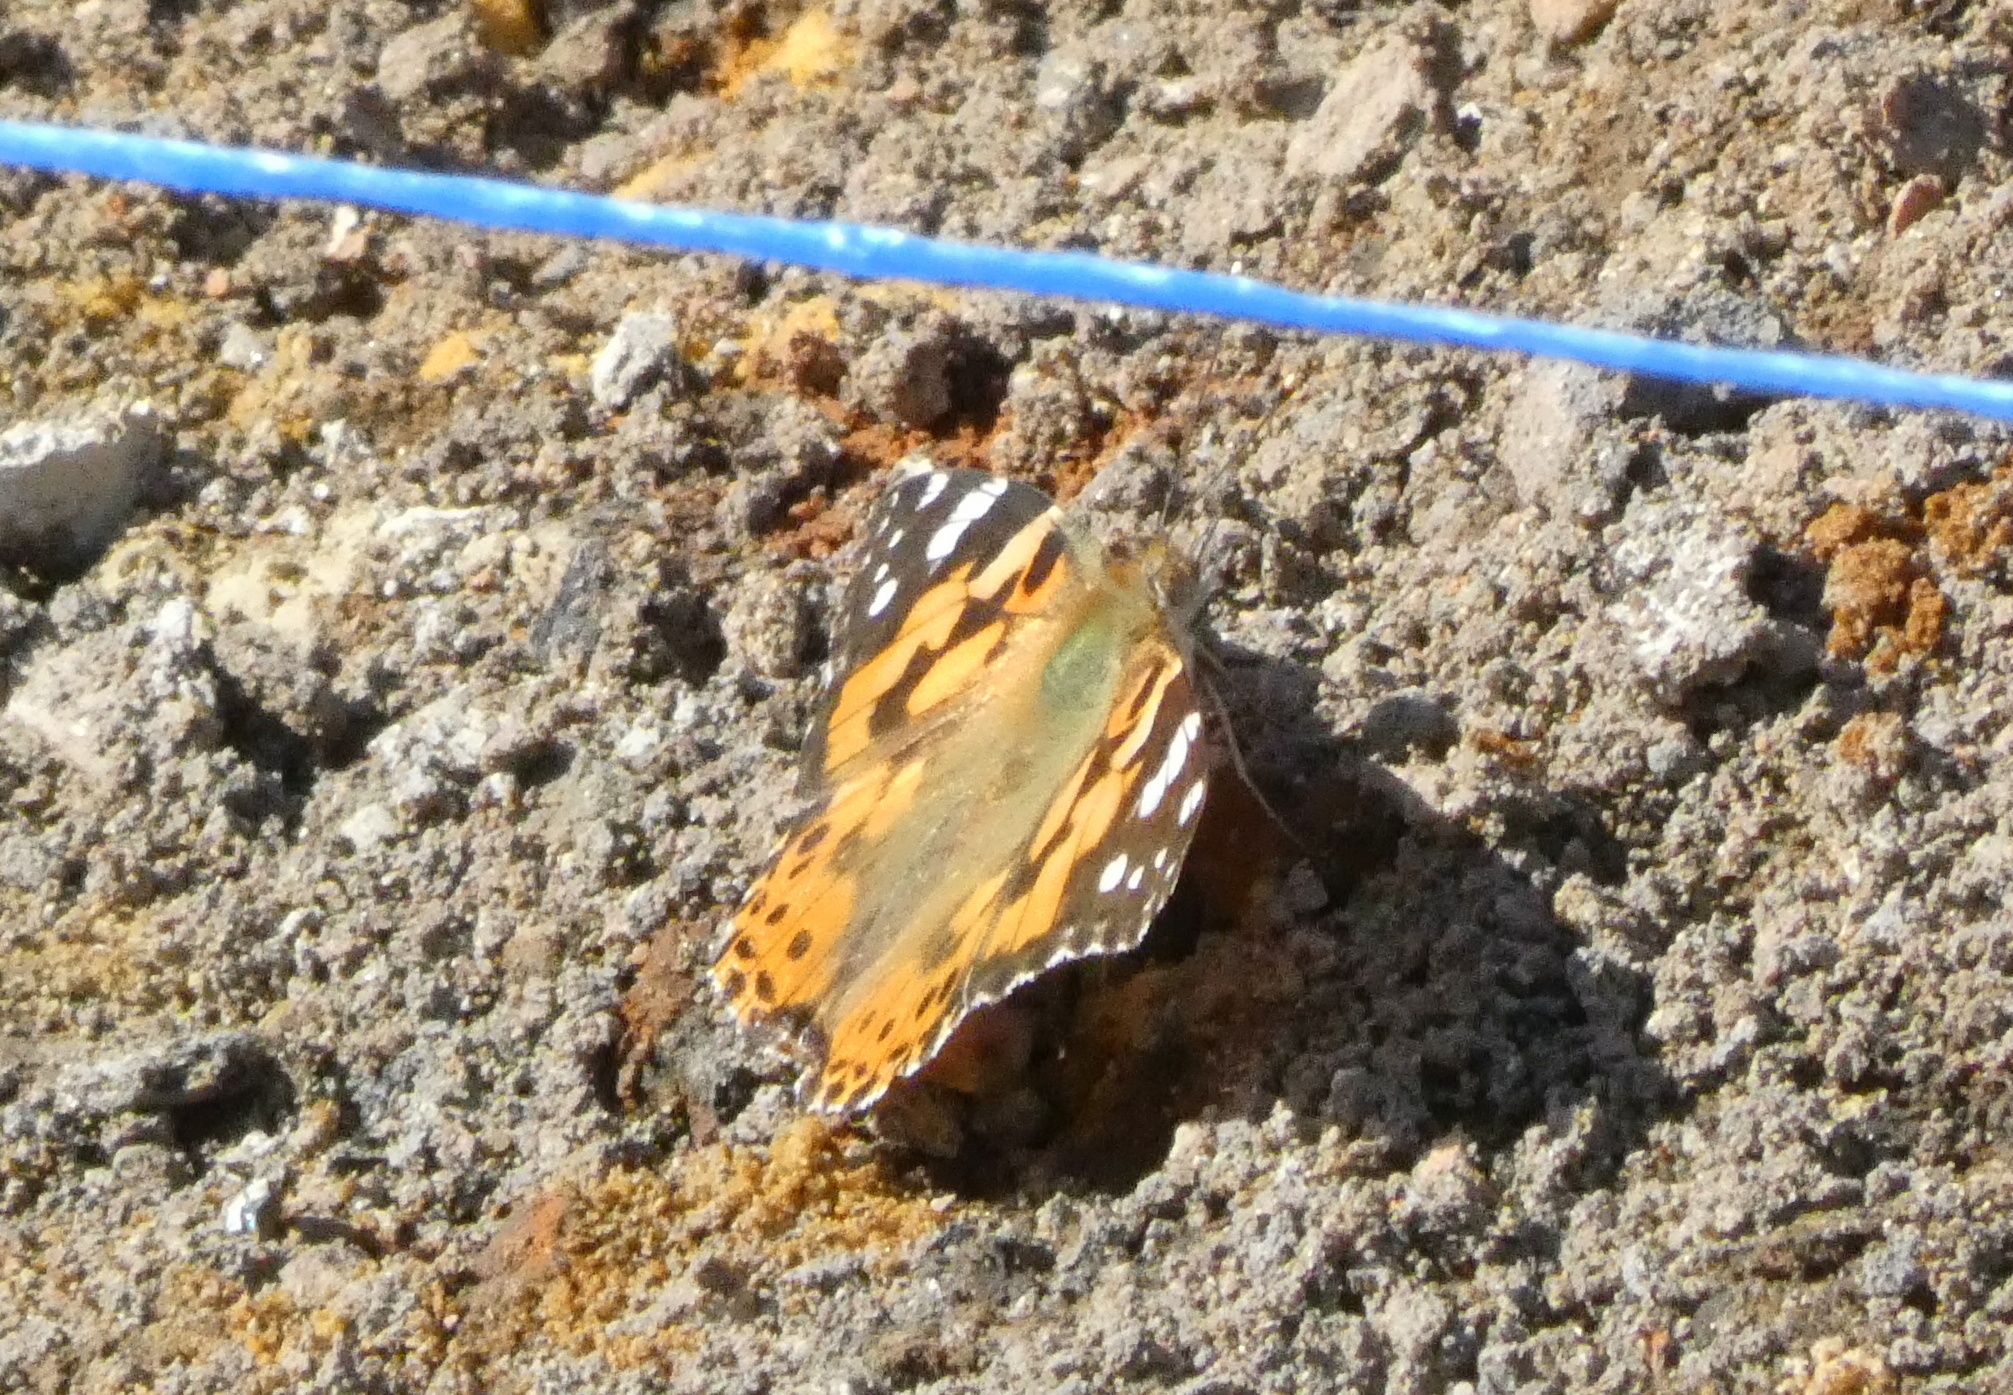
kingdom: Animalia
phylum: Arthropoda
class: Insecta
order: Lepidoptera
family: Nymphalidae
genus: Vanessa
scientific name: Vanessa cardui
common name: Painted lady
